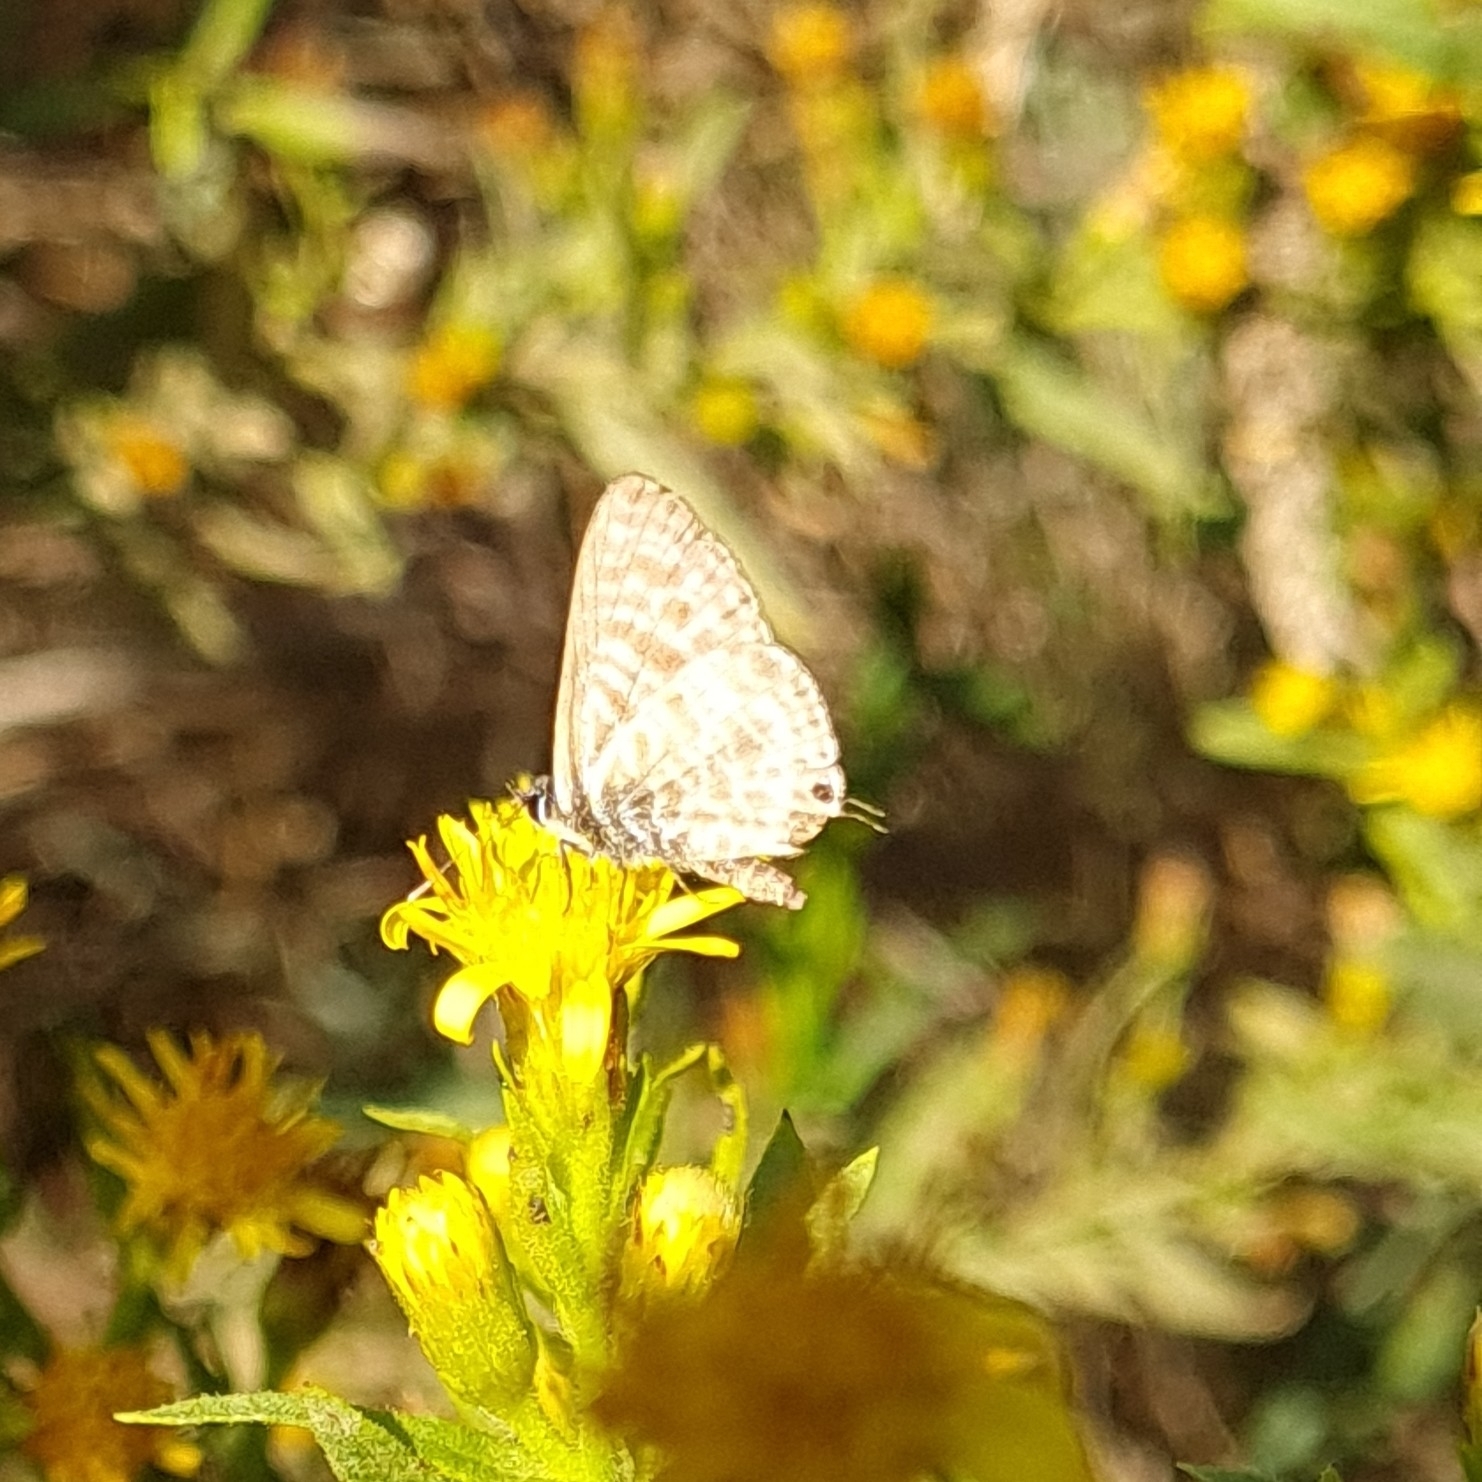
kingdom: Animalia
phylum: Arthropoda
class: Insecta
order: Lepidoptera
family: Lycaenidae
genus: Leptotes
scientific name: Leptotes pirithous
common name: Lang's short-tailed blue
